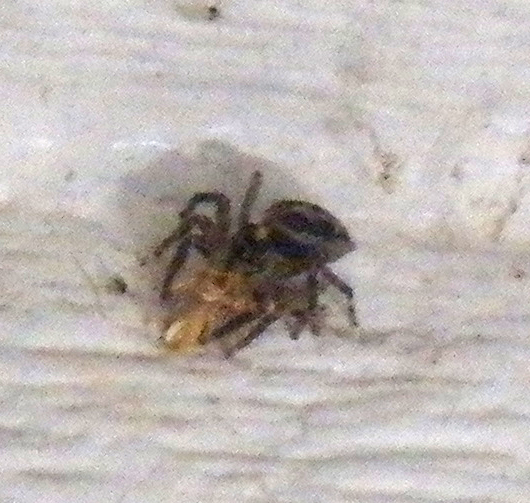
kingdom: Animalia
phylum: Arthropoda
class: Arachnida
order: Araneae
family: Salticidae
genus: Plexippus
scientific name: Plexippus paykulli
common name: Pantropical jumper
